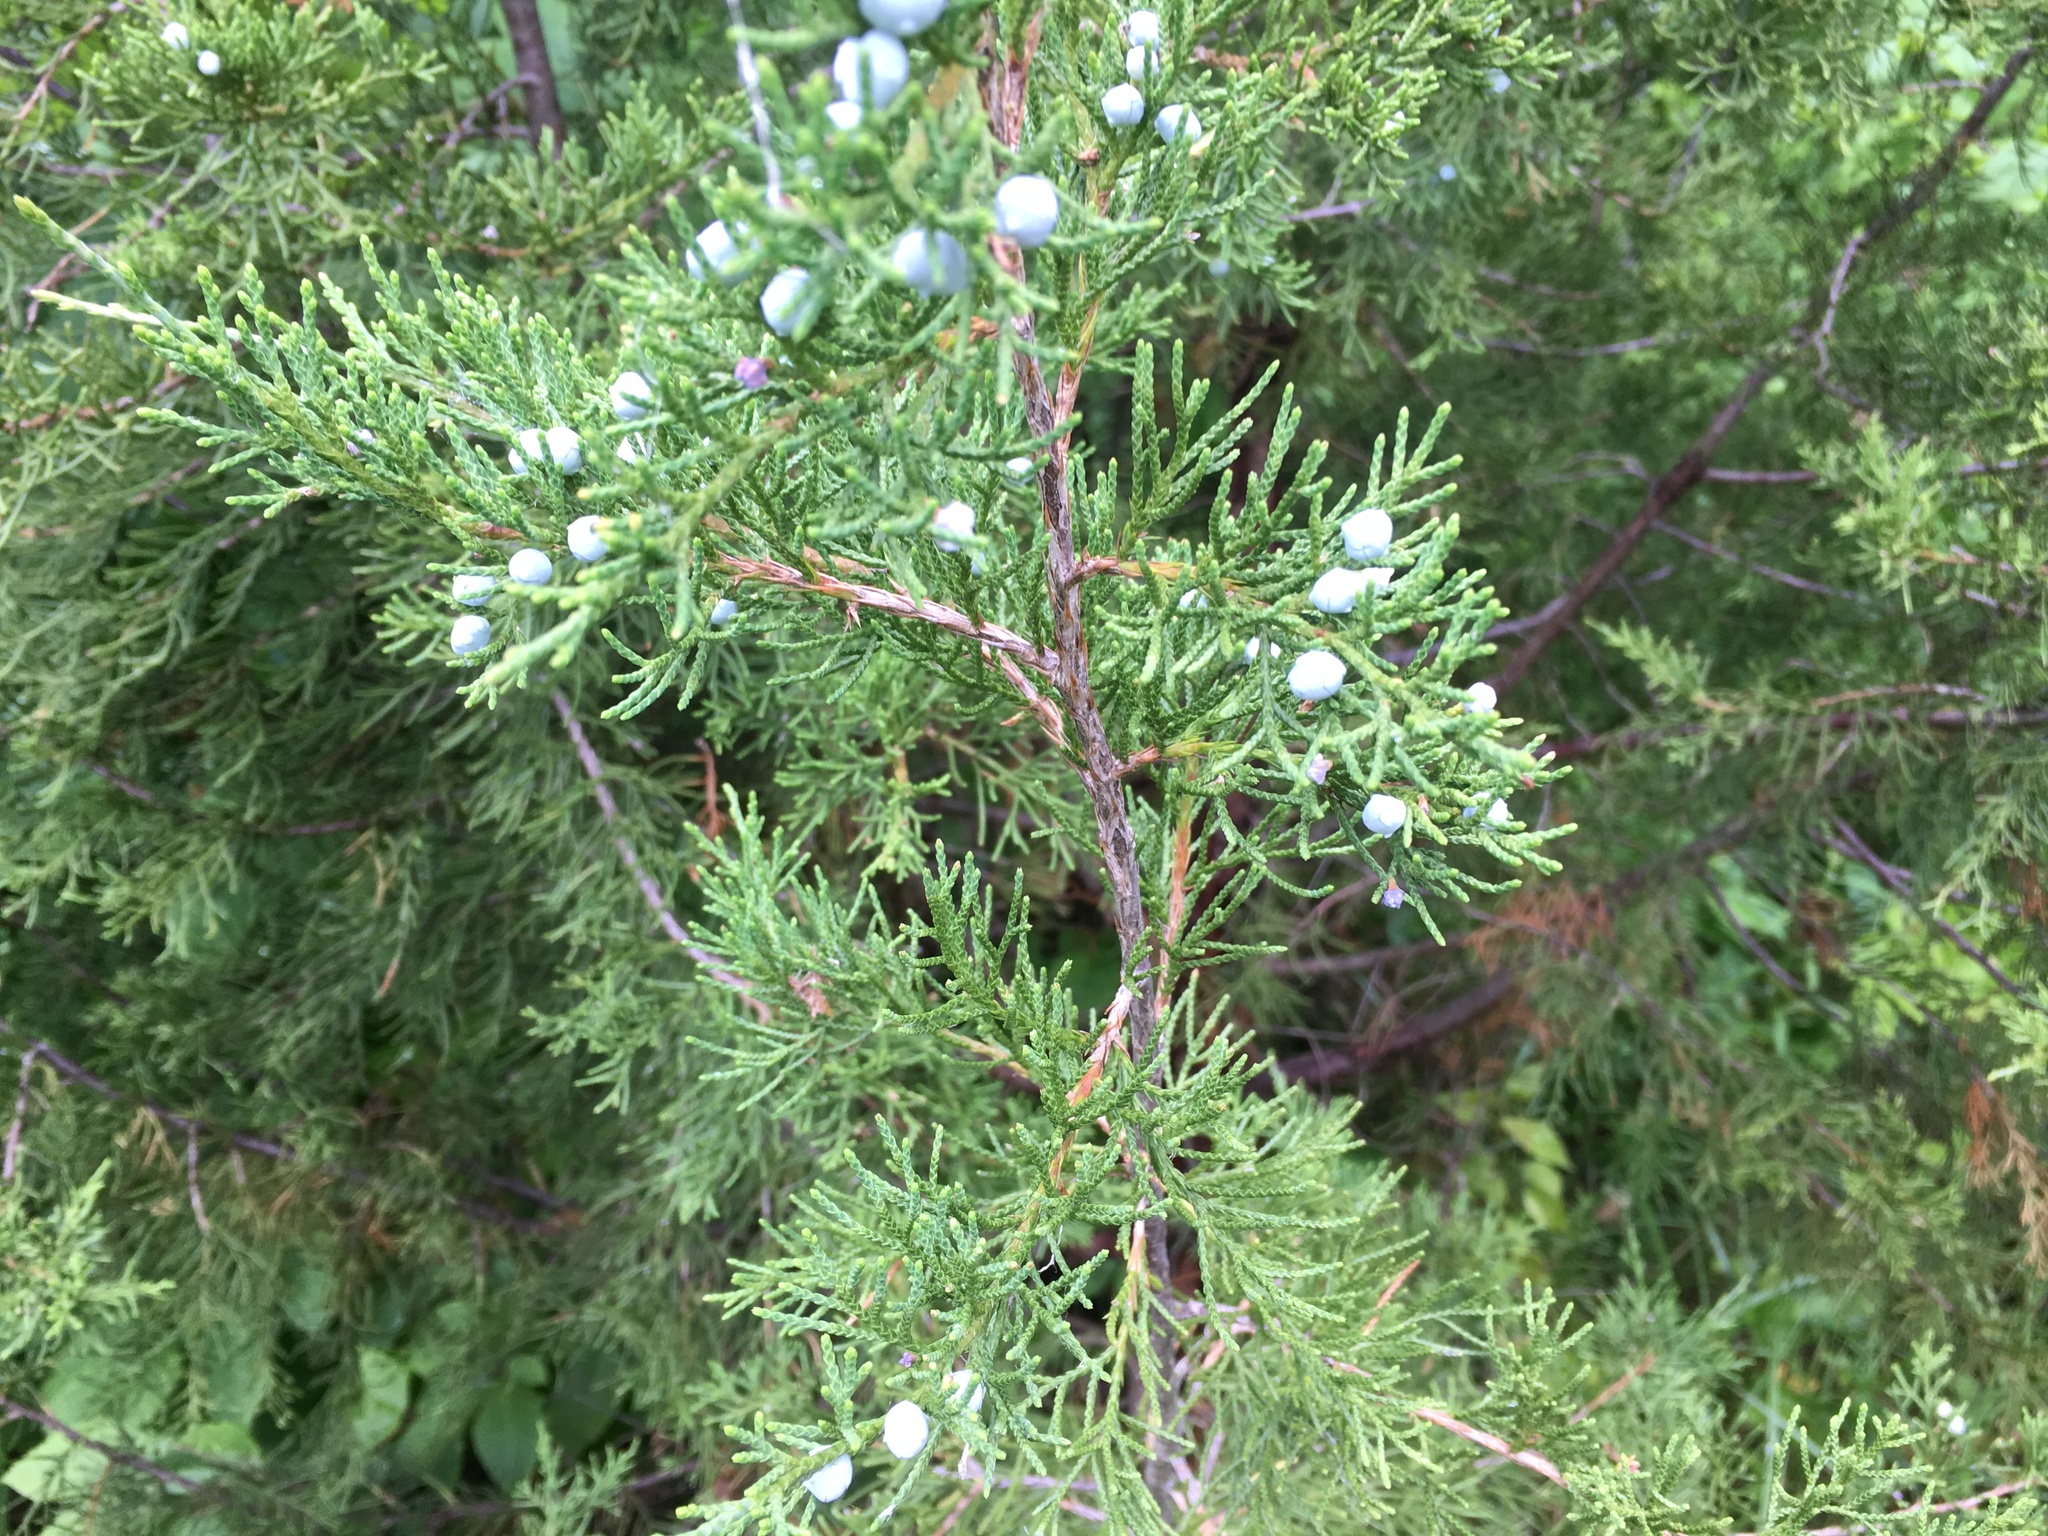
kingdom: Plantae
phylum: Tracheophyta
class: Pinopsida
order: Pinales
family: Cupressaceae
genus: Juniperus
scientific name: Juniperus virginiana
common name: Red juniper
